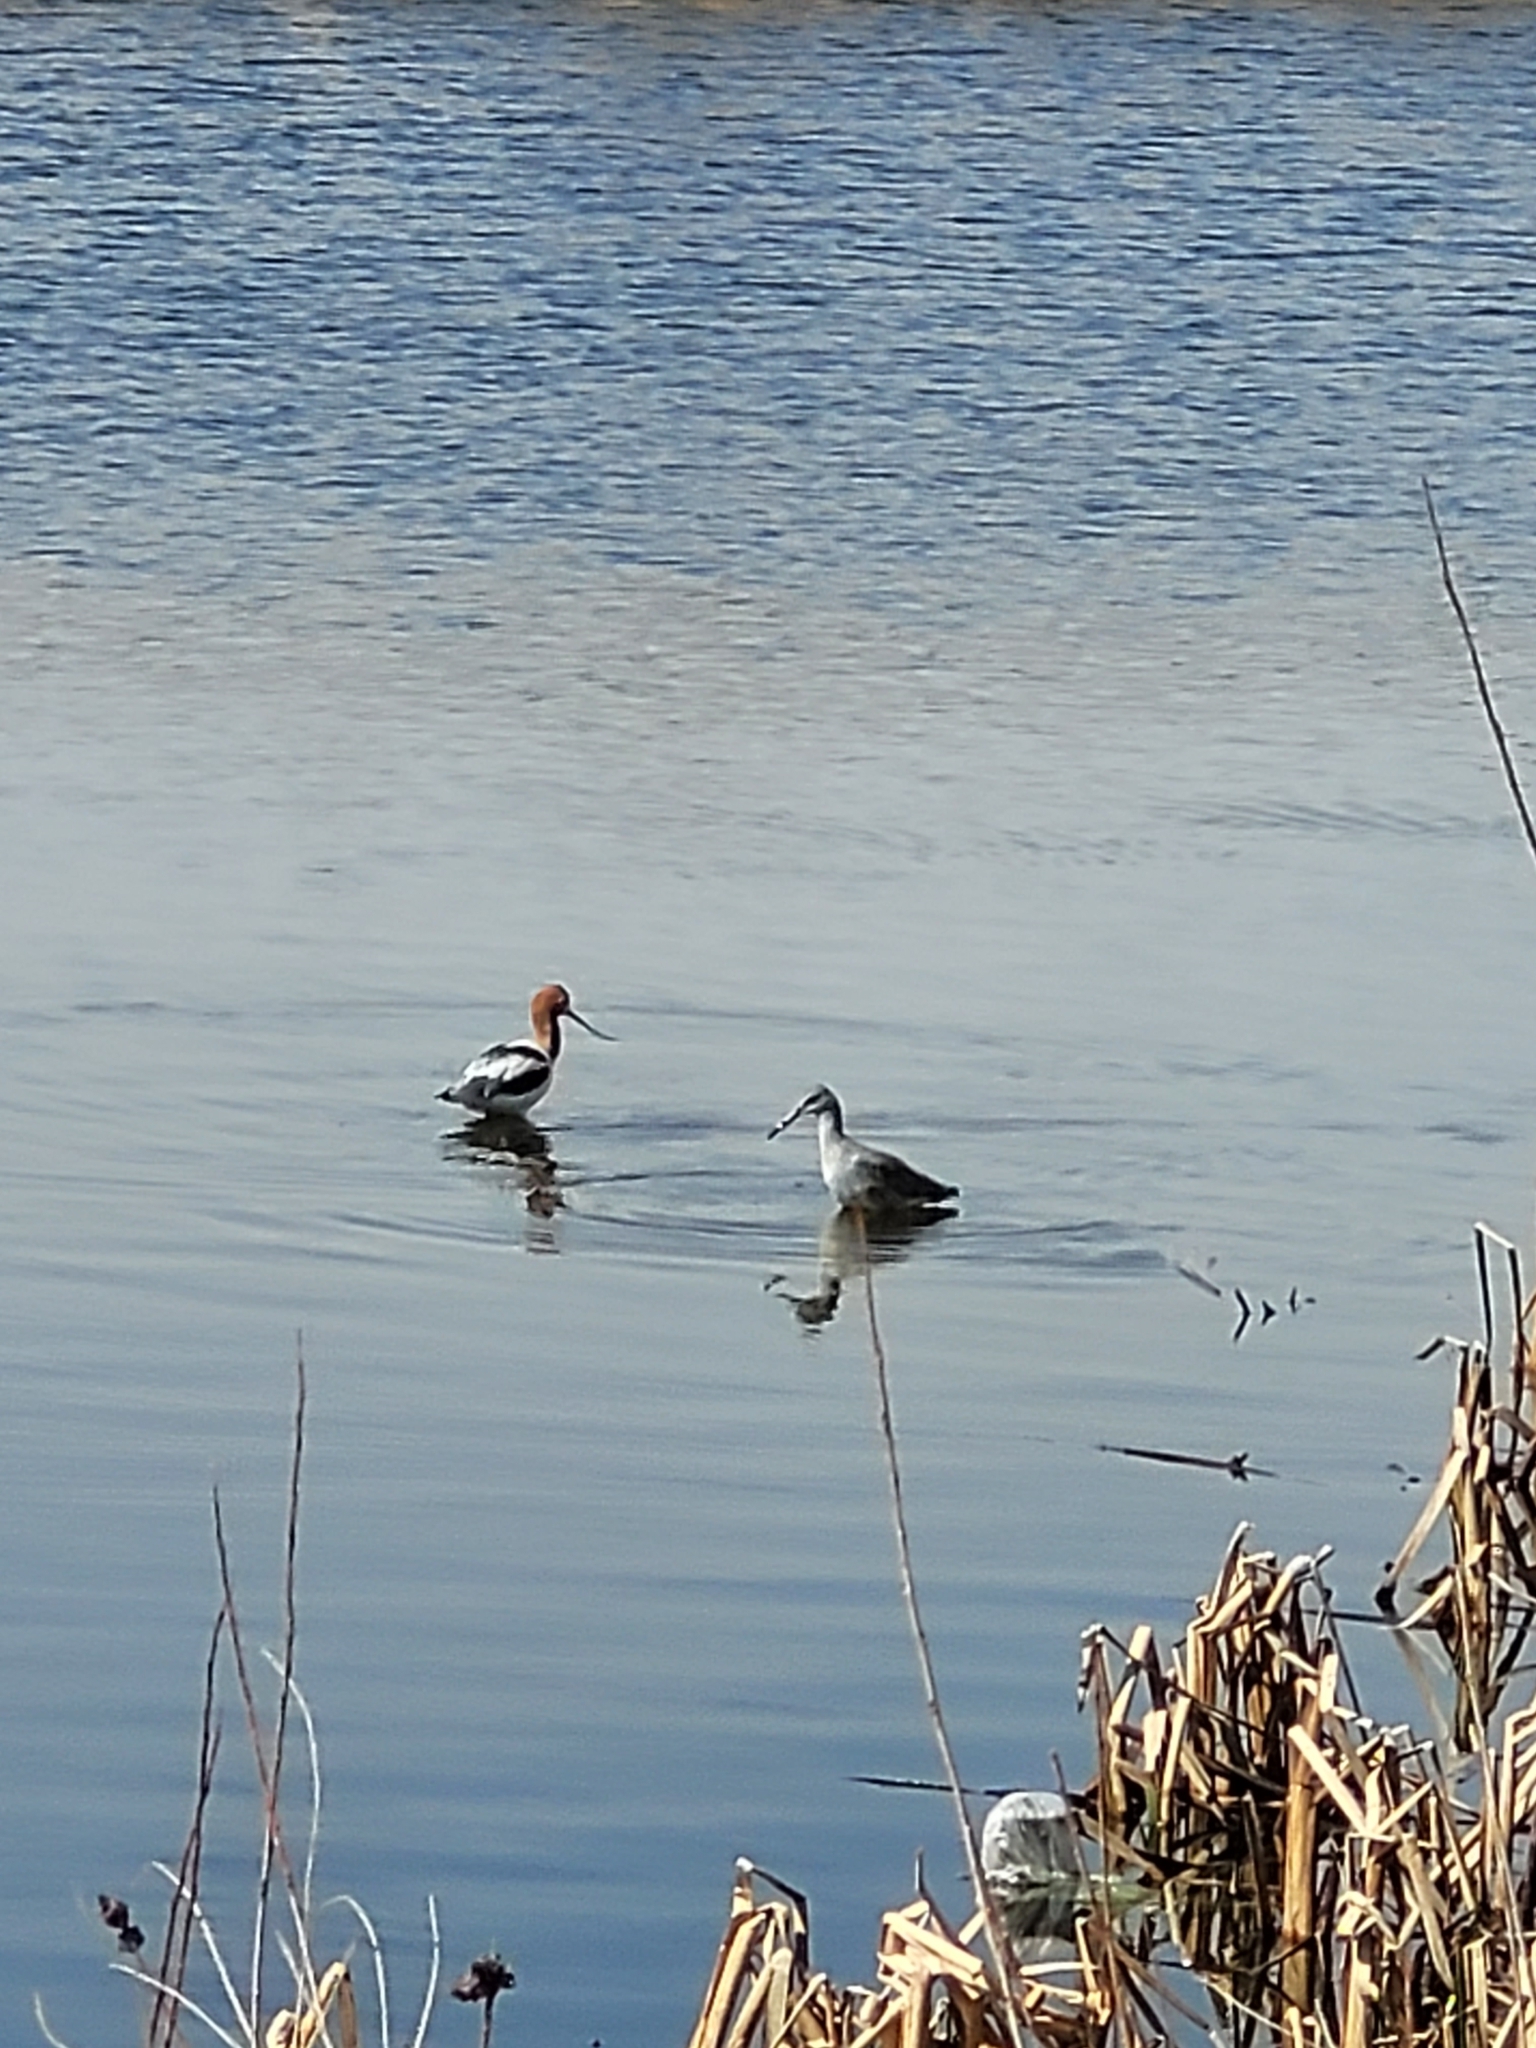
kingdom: Animalia
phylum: Chordata
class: Aves
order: Charadriiformes
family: Scolopacidae
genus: Tringa
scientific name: Tringa semipalmata
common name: Willet
